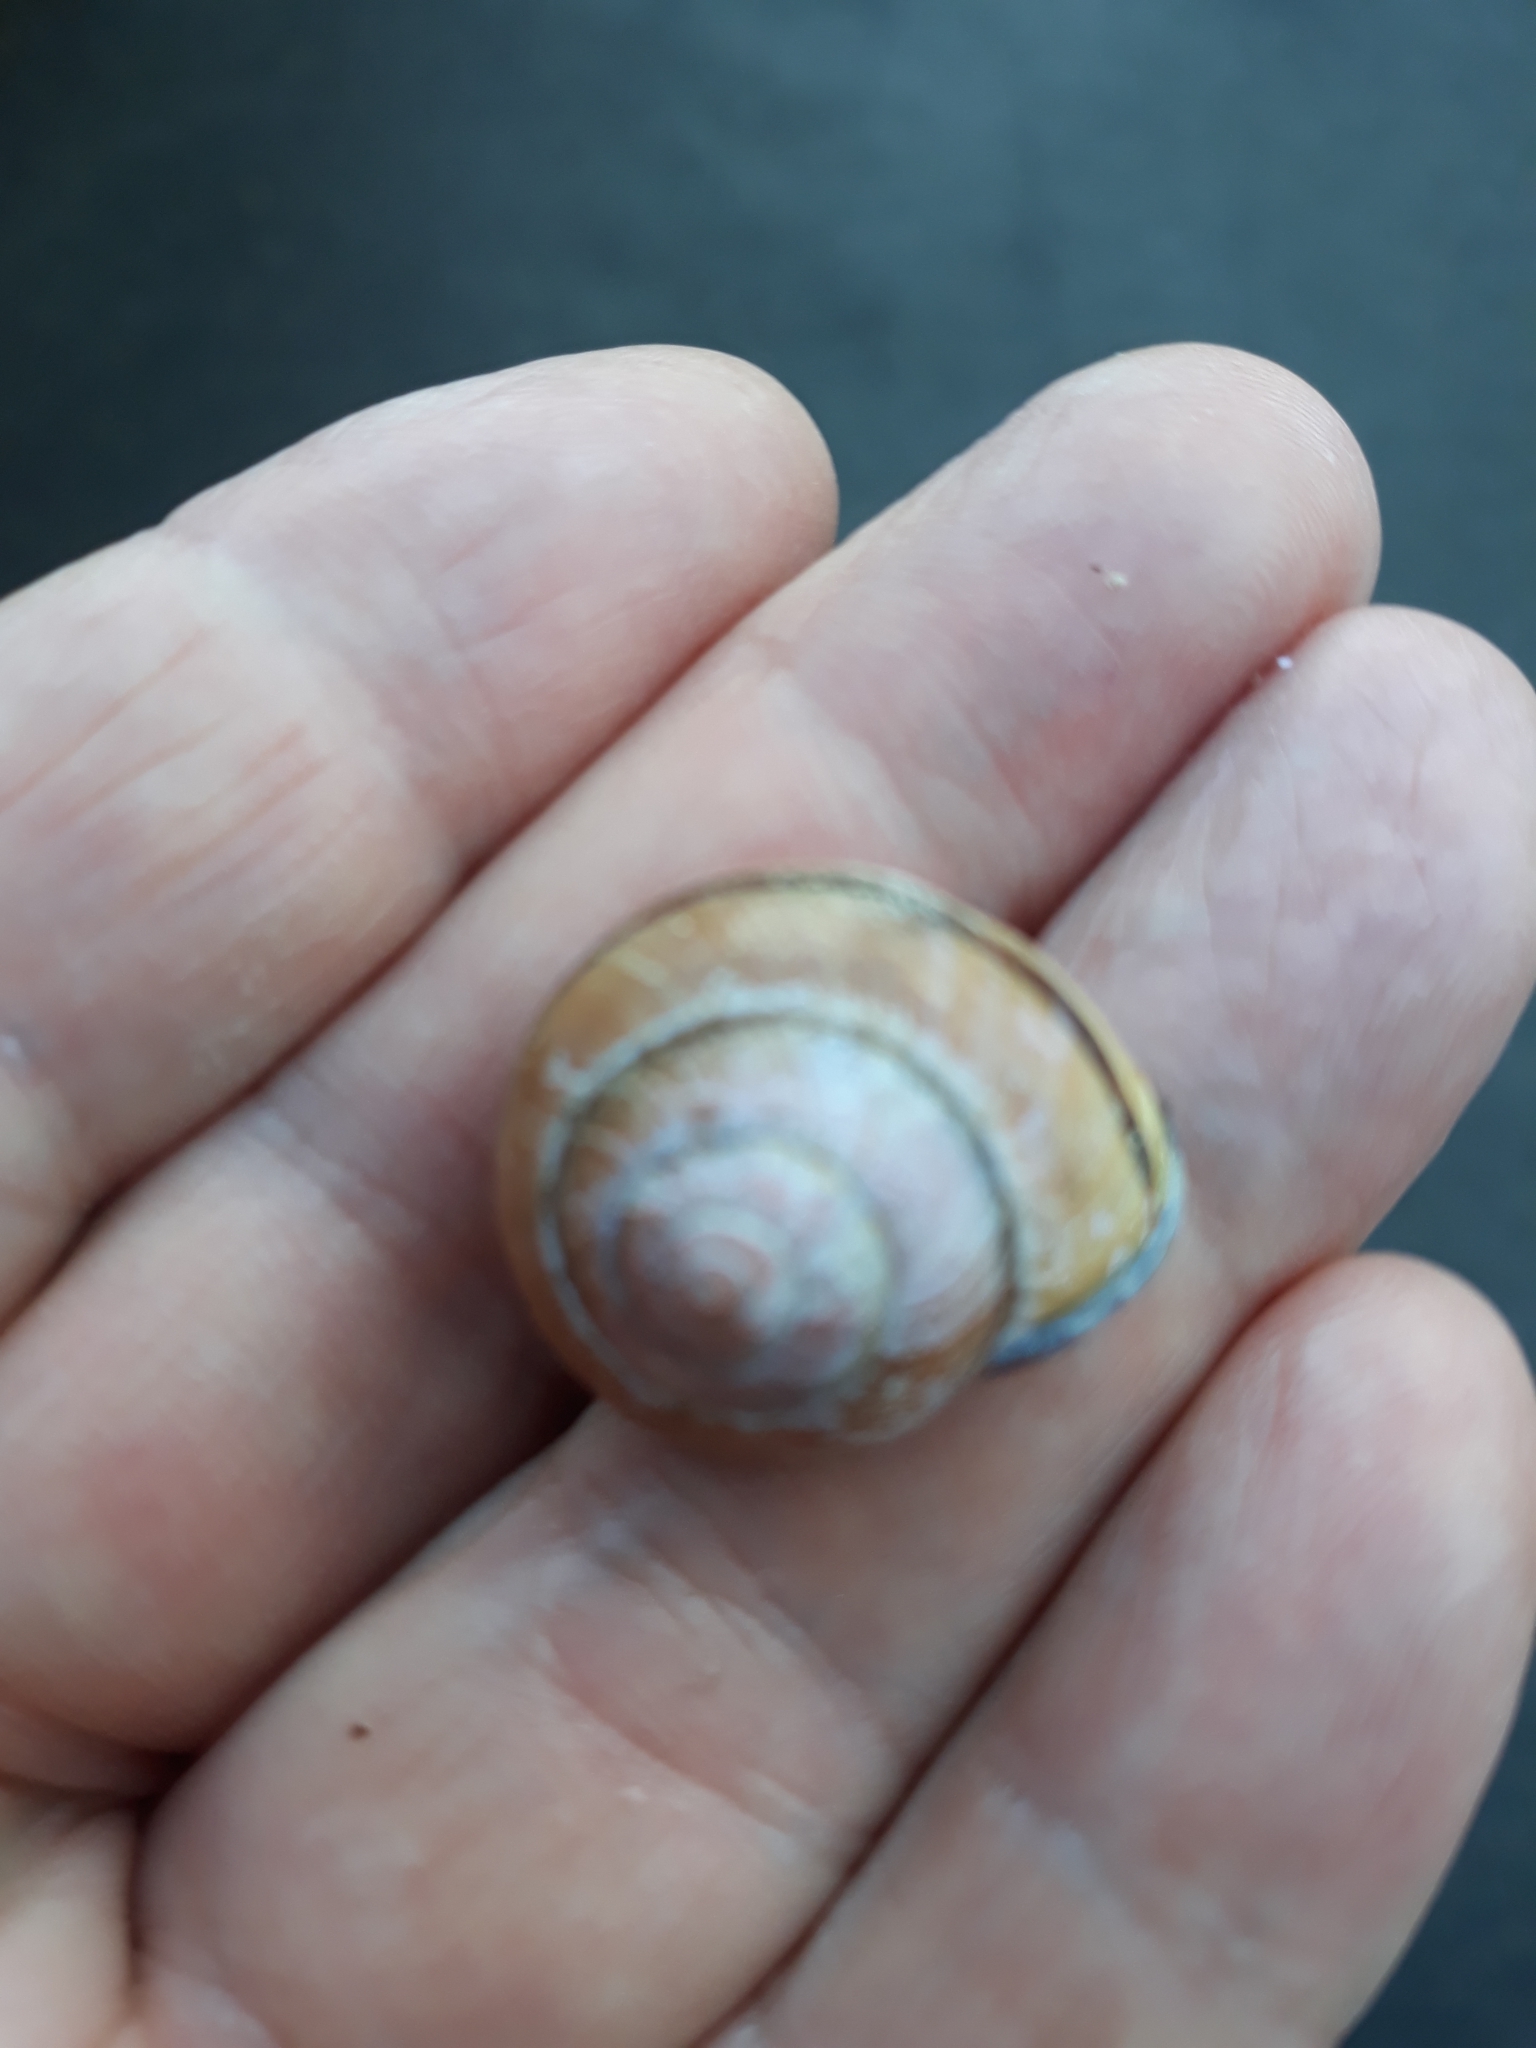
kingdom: Animalia
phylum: Mollusca
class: Gastropoda
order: Stylommatophora
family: Helicidae
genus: Cepaea
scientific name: Cepaea nemoralis
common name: Grovesnail
